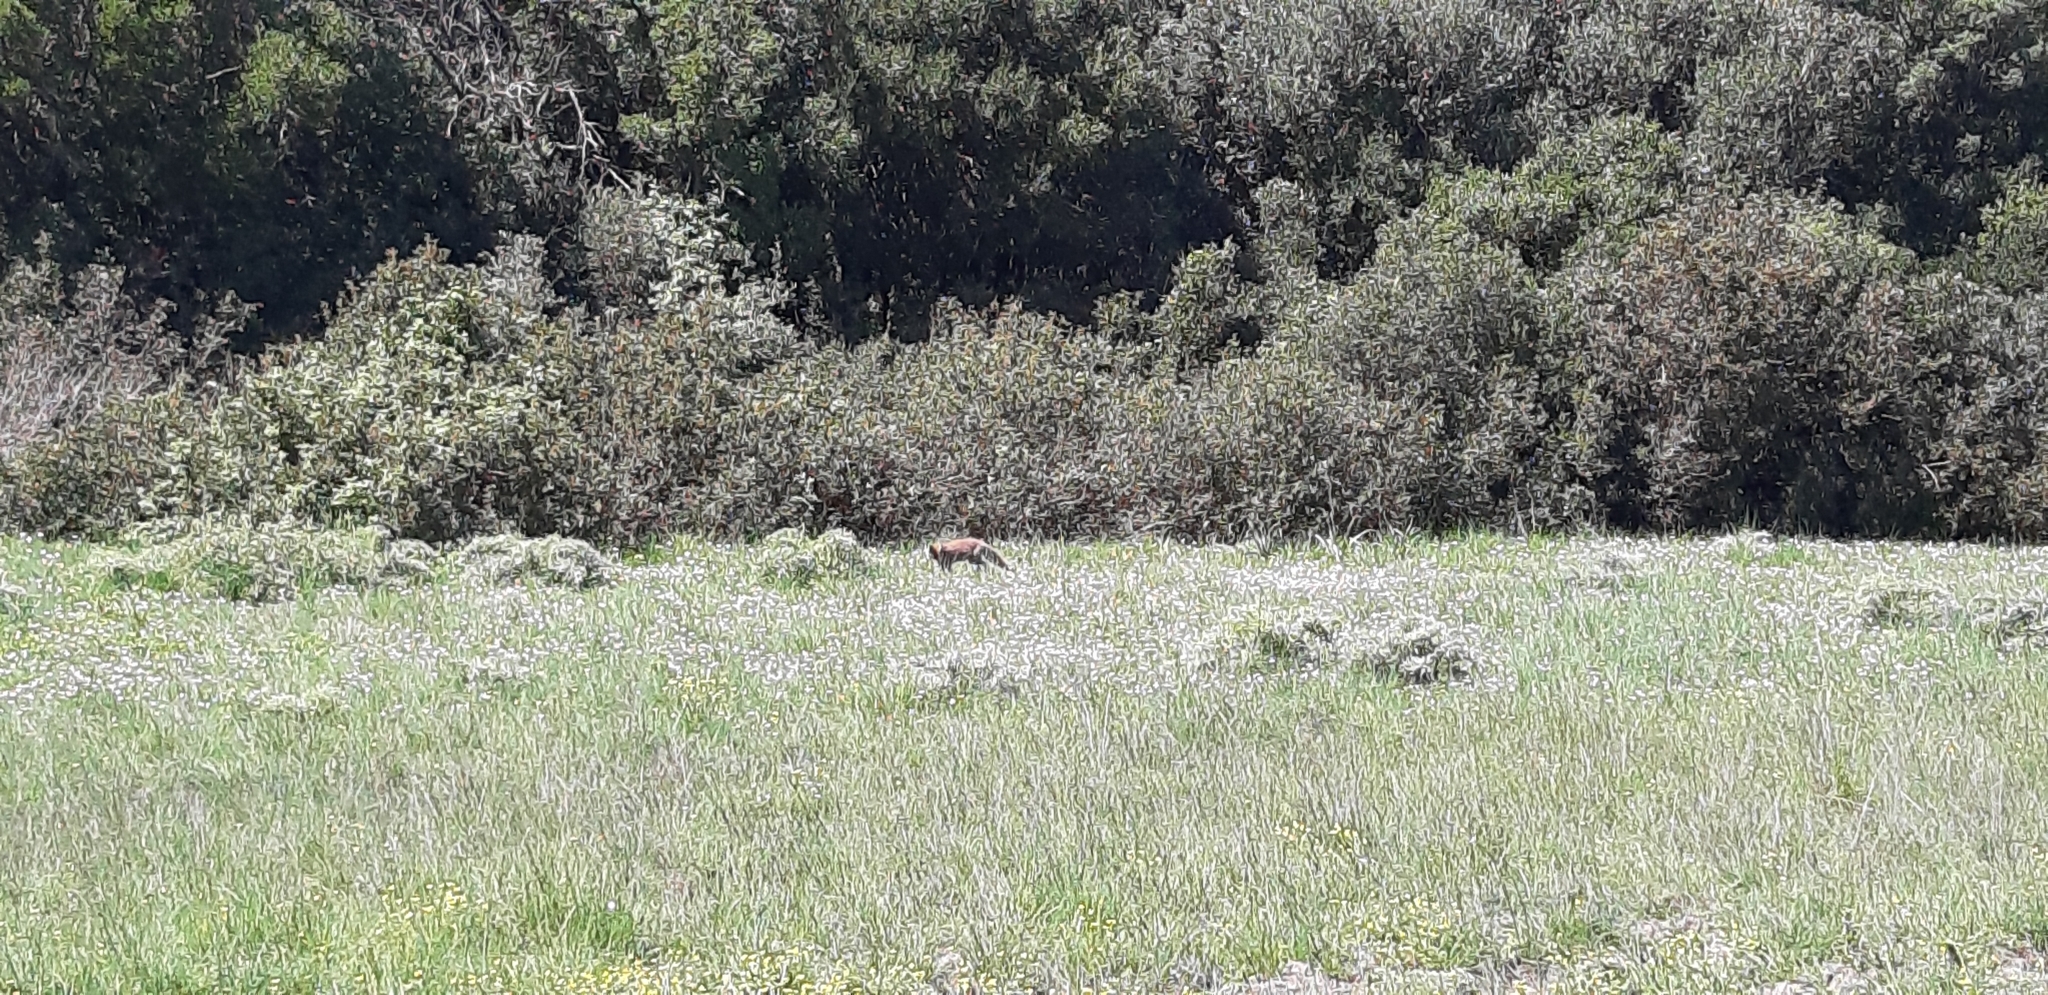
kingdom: Animalia
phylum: Chordata
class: Mammalia
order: Carnivora
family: Canidae
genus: Vulpes
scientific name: Vulpes vulpes
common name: Red fox
